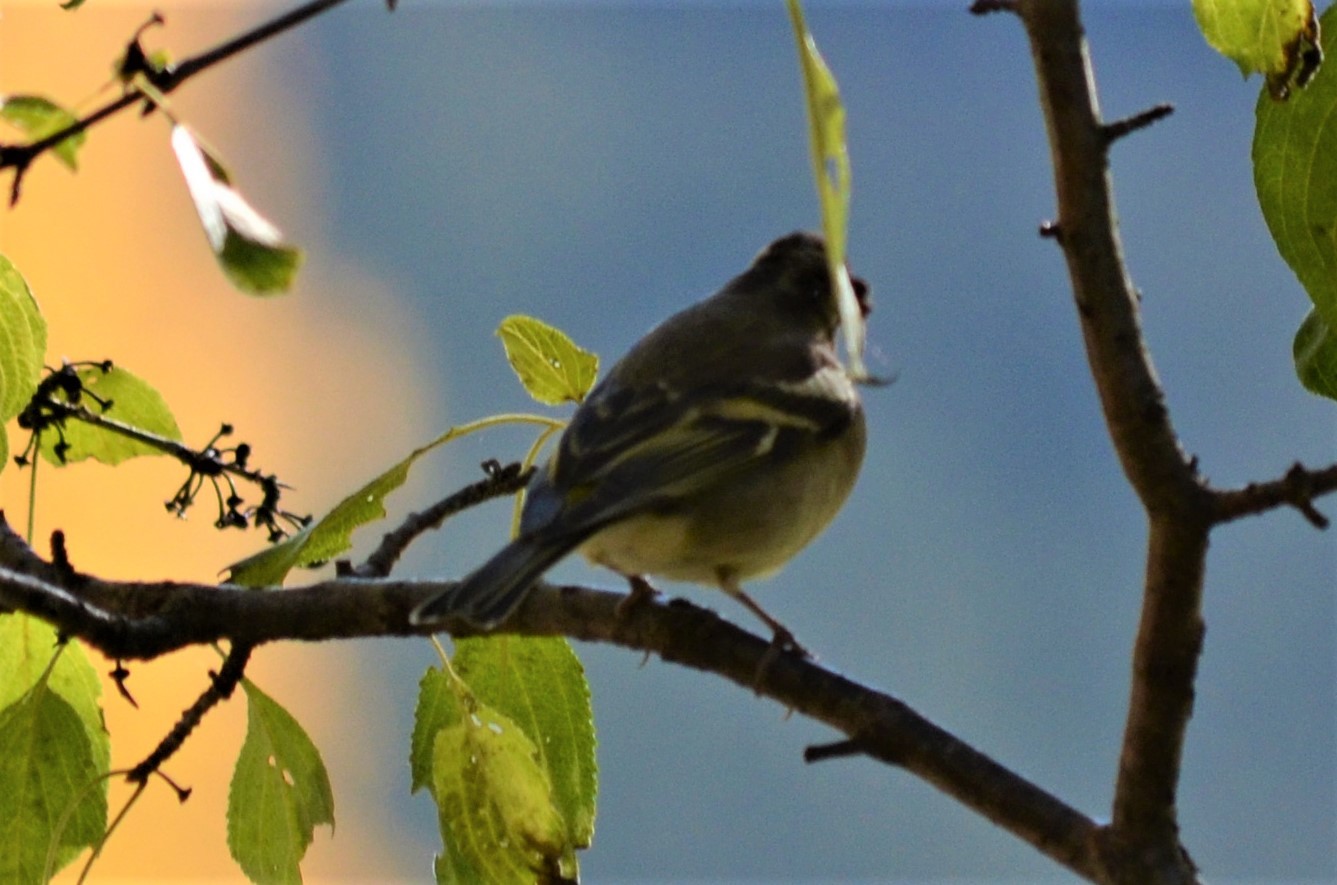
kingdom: Animalia
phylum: Chordata
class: Aves
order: Passeriformes
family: Fringillidae
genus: Fringilla
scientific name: Fringilla coelebs
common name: Common chaffinch
